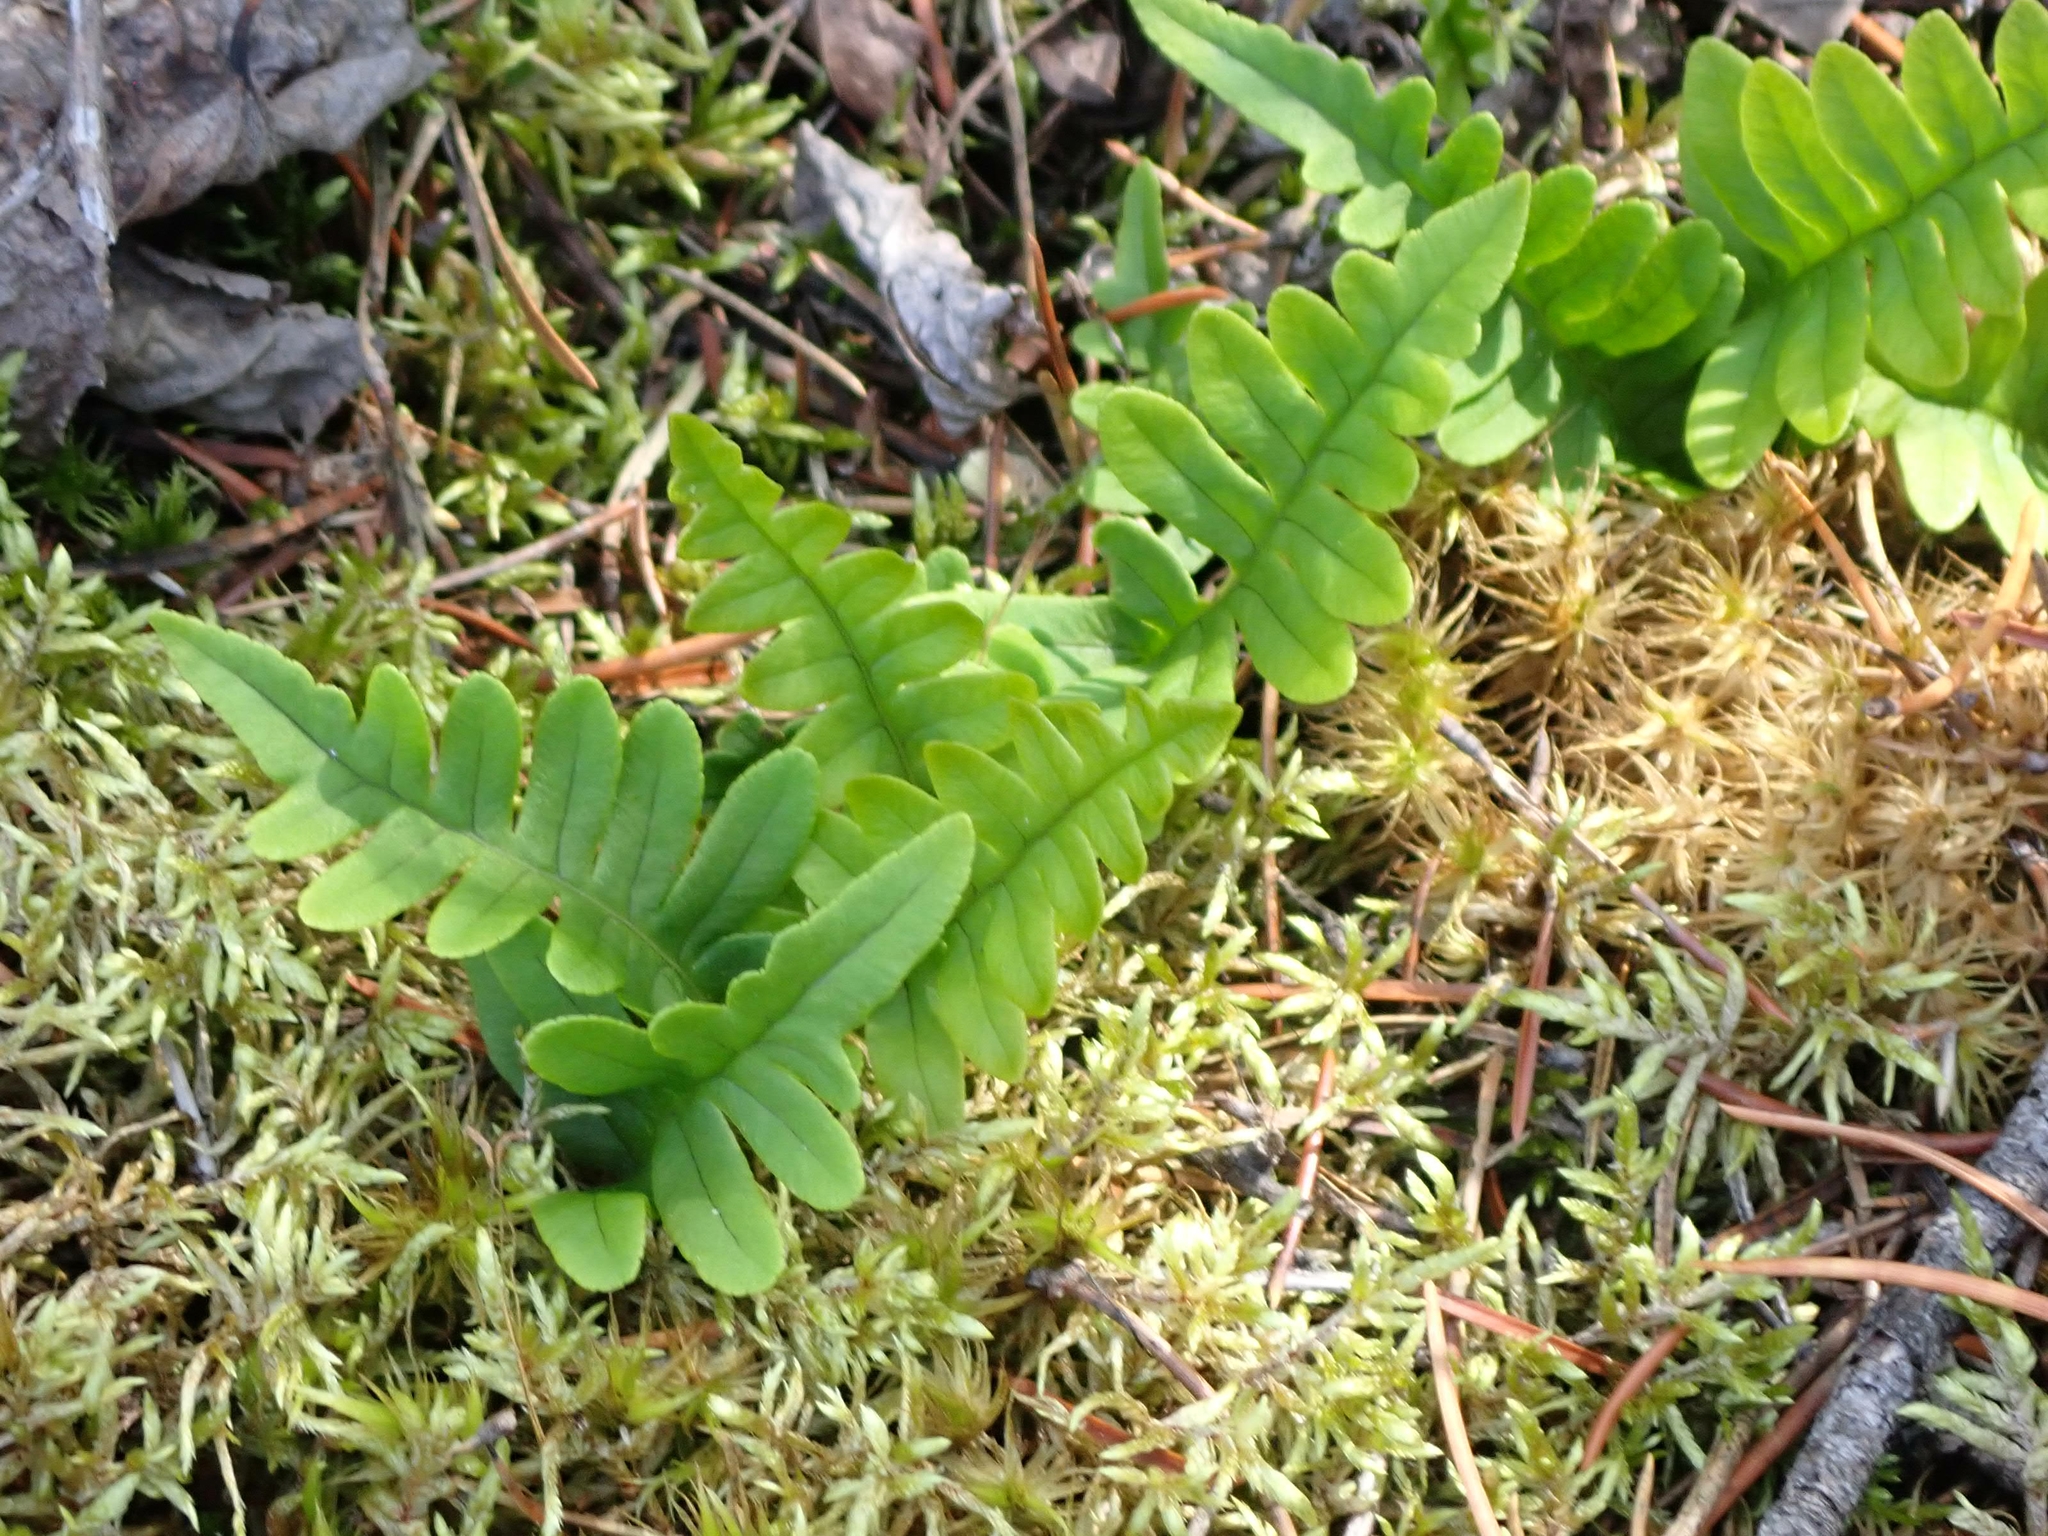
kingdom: Plantae
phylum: Tracheophyta
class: Polypodiopsida
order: Polypodiales
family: Polypodiaceae
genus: Polypodium
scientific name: Polypodium virginianum
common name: American wall fern
